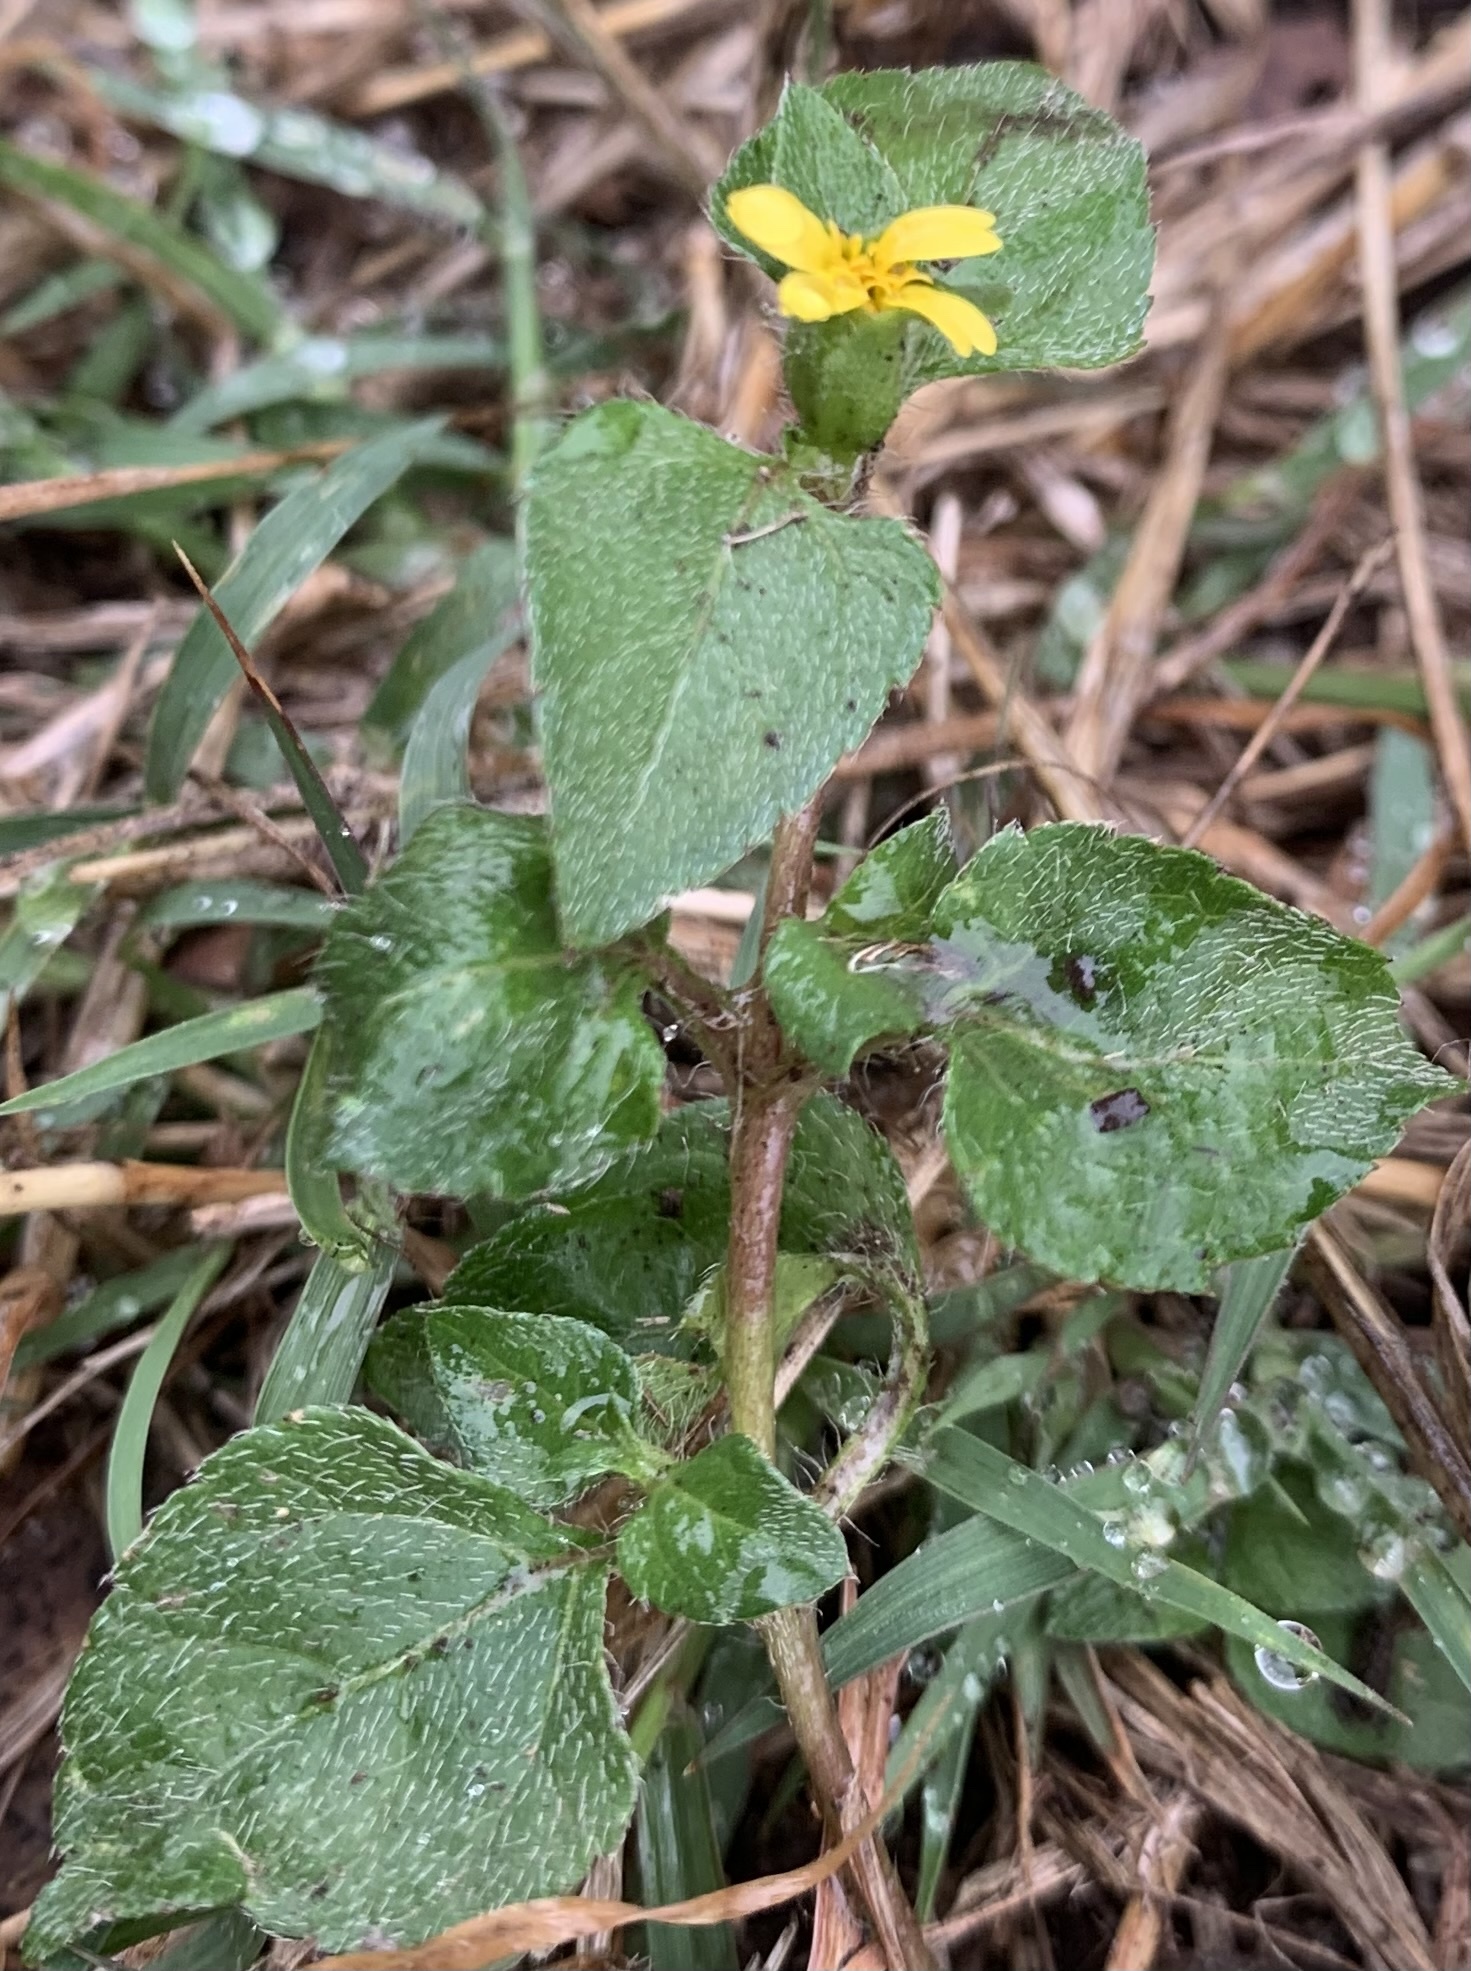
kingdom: Plantae
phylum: Tracheophyta
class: Magnoliopsida
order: Asterales
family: Asteraceae
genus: Calyptocarpus
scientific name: Calyptocarpus vialis
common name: Straggler daisy
